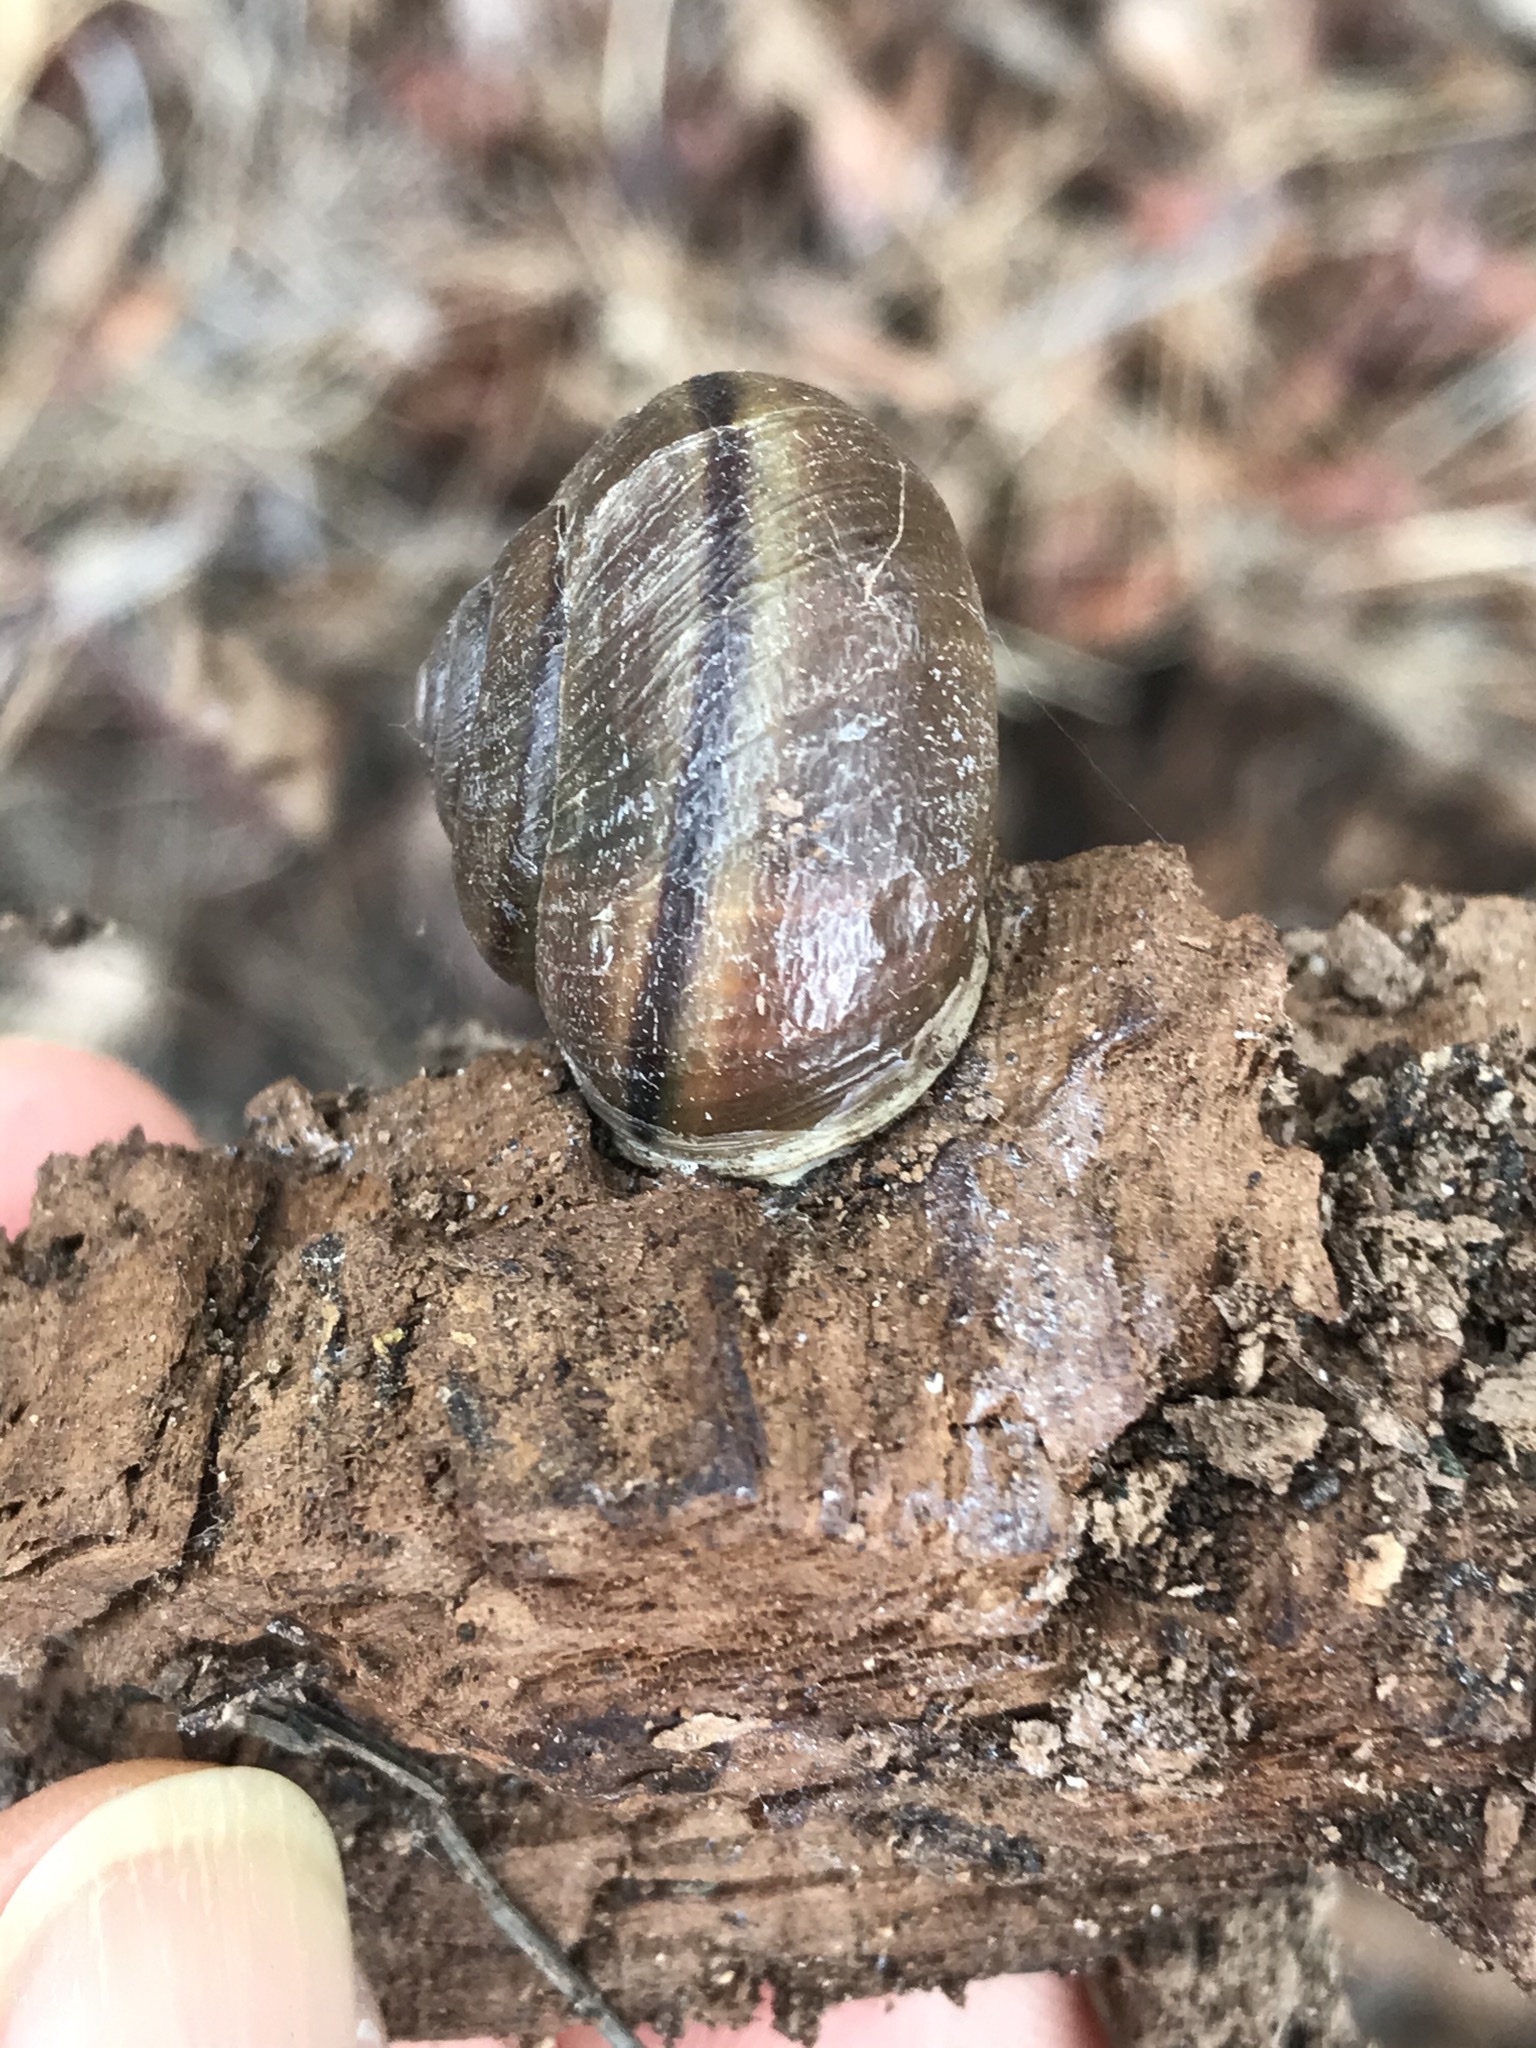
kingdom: Animalia
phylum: Mollusca
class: Gastropoda
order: Stylommatophora
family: Xanthonychidae
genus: Helminthoglypta
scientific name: Helminthoglypta tudiculata
